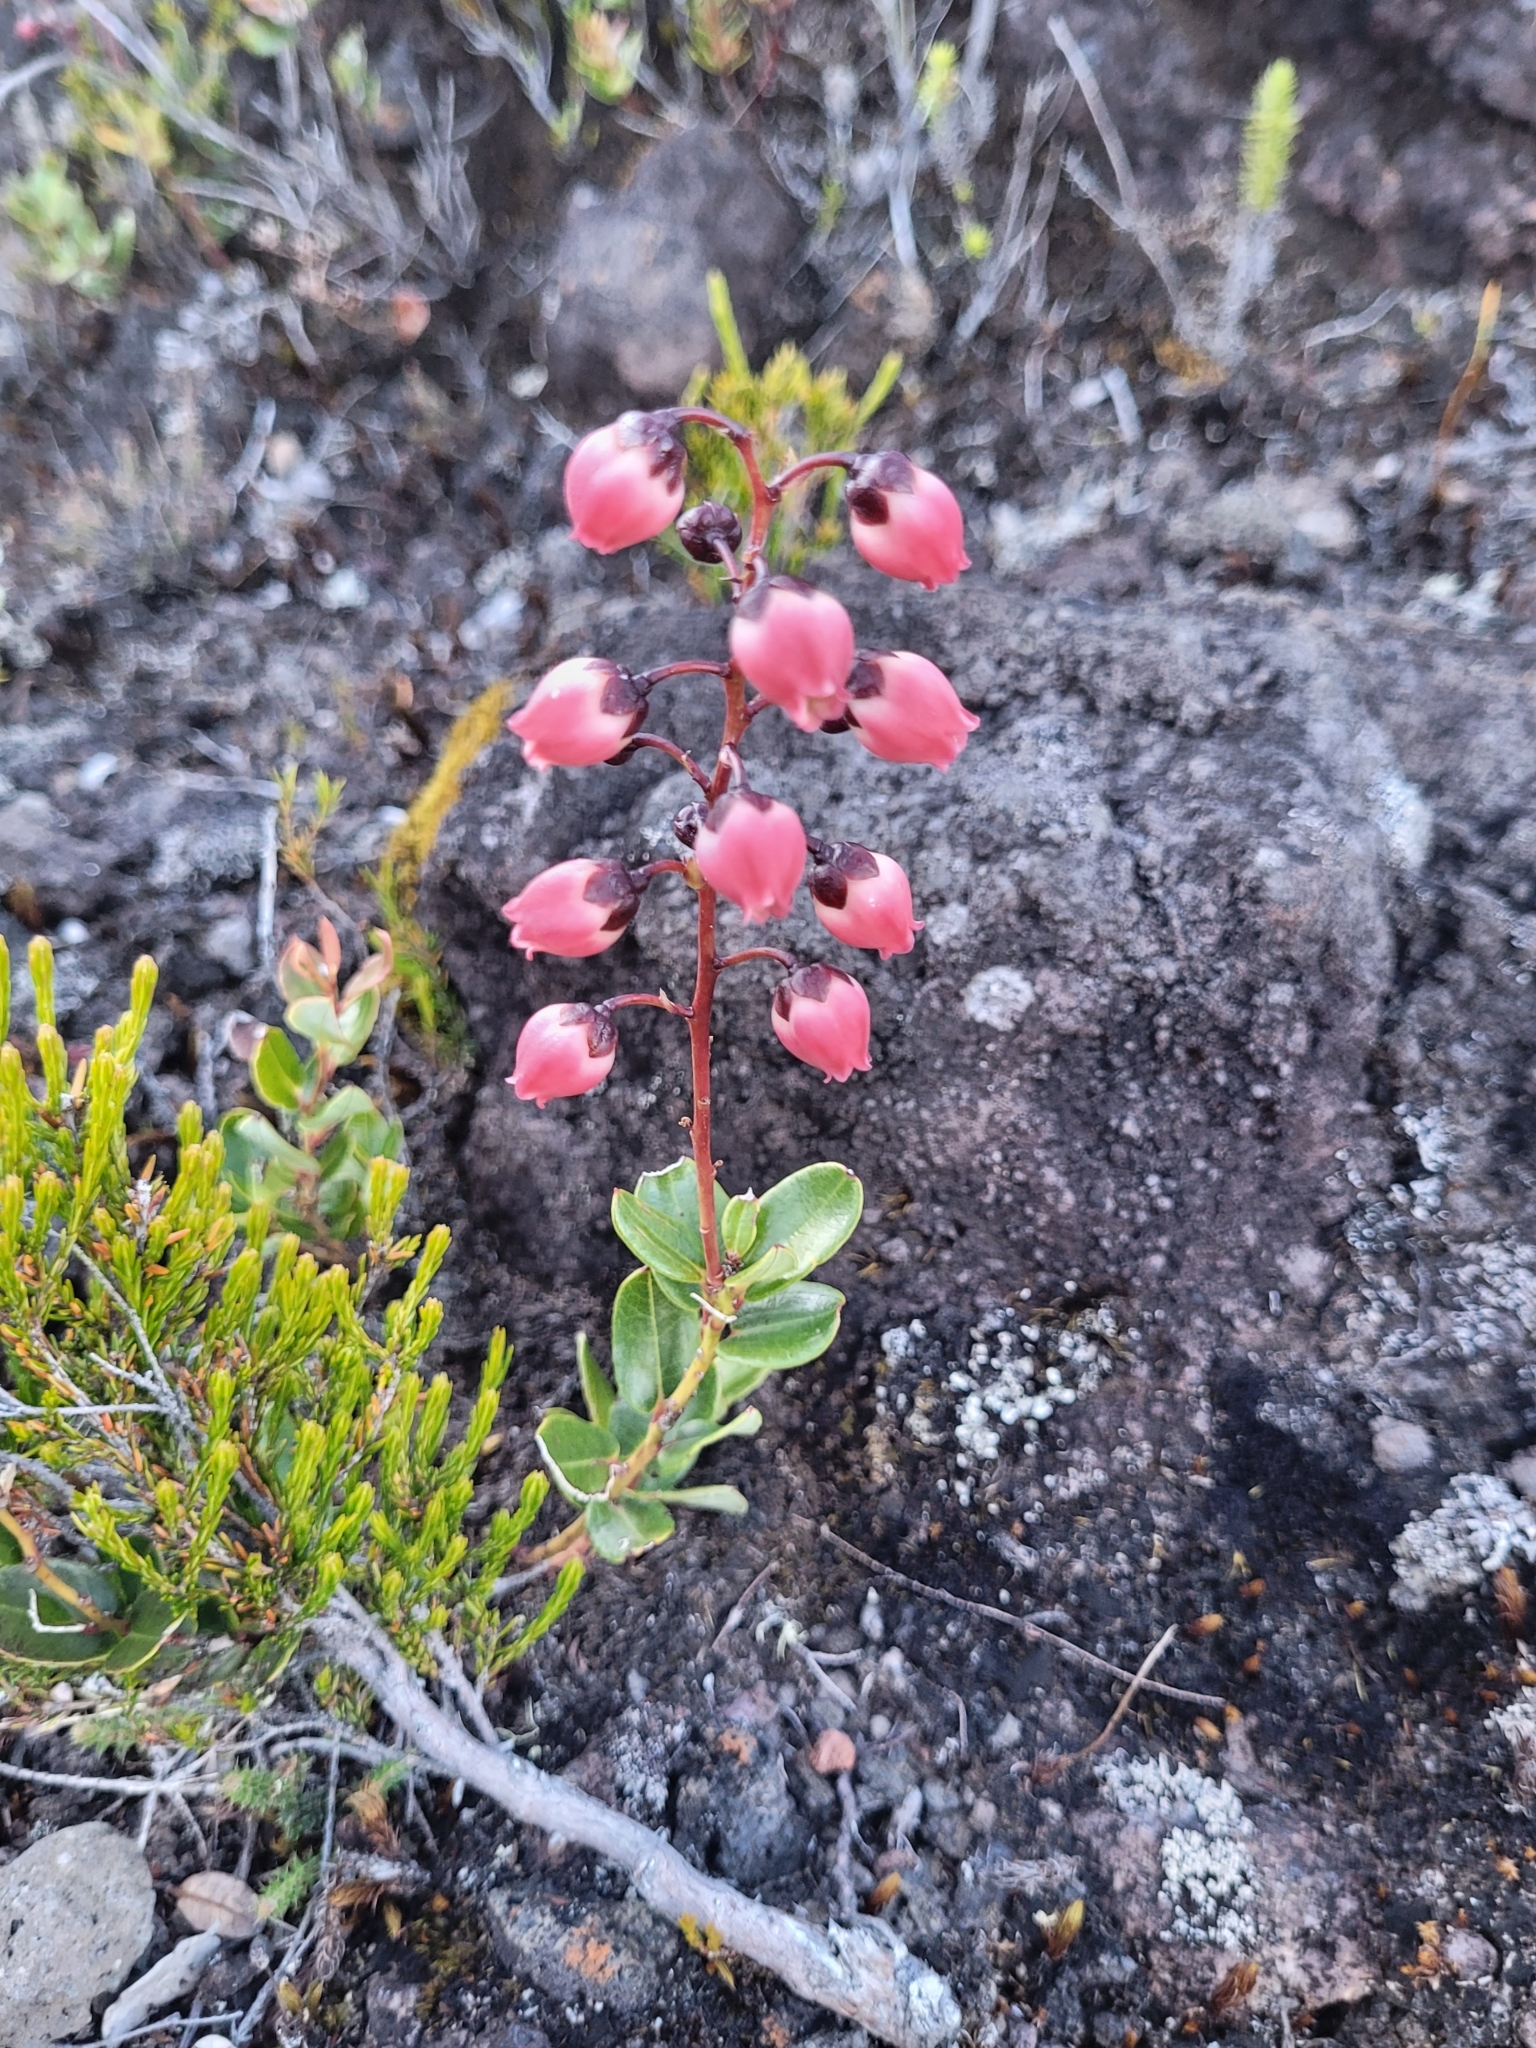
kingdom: Plantae
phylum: Tracheophyta
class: Magnoliopsida
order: Ericales
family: Ericaceae
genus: Agarista
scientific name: Agarista buxifolia
